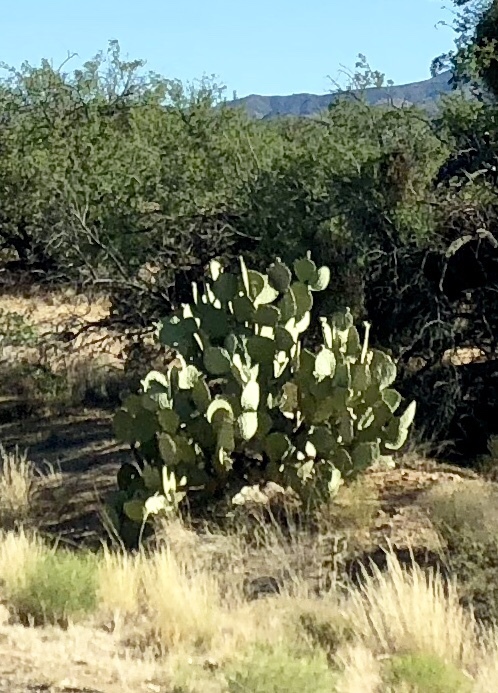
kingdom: Plantae
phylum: Tracheophyta
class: Magnoliopsida
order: Caryophyllales
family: Cactaceae
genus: Opuntia
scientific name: Opuntia engelmannii
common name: Cactus-apple
